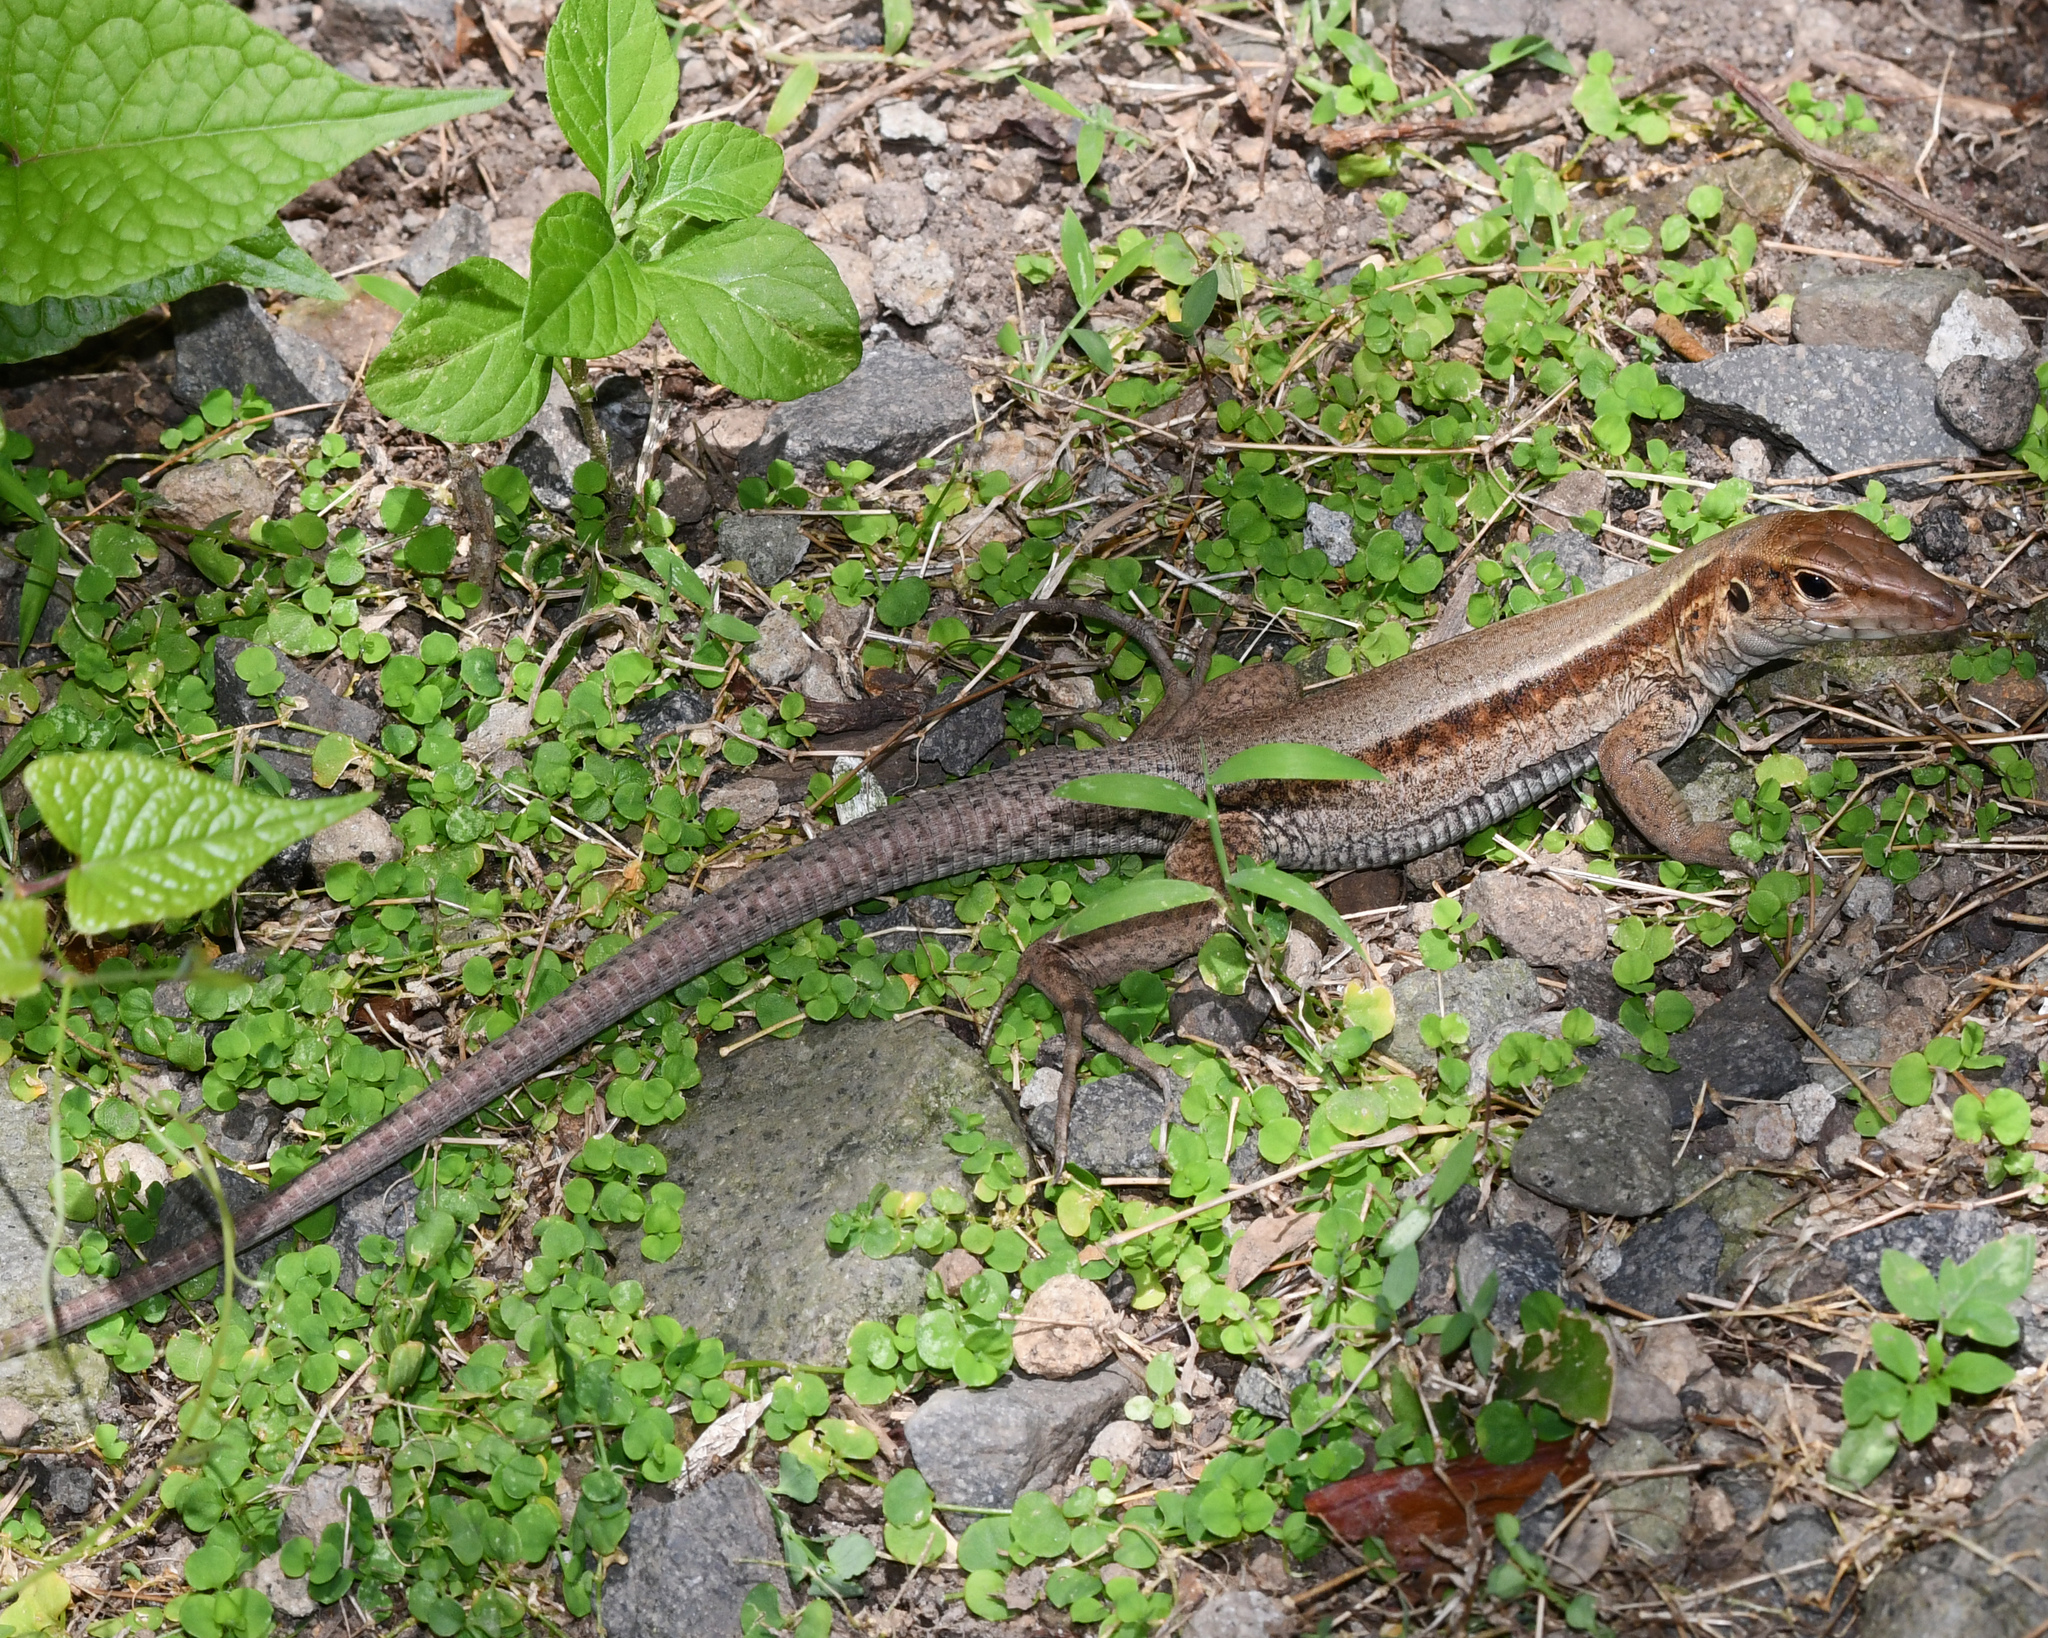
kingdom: Animalia
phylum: Chordata
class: Squamata
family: Teiidae
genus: Pholidoscelis
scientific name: Pholidoscelis fuscatus
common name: Dominican ameiva
